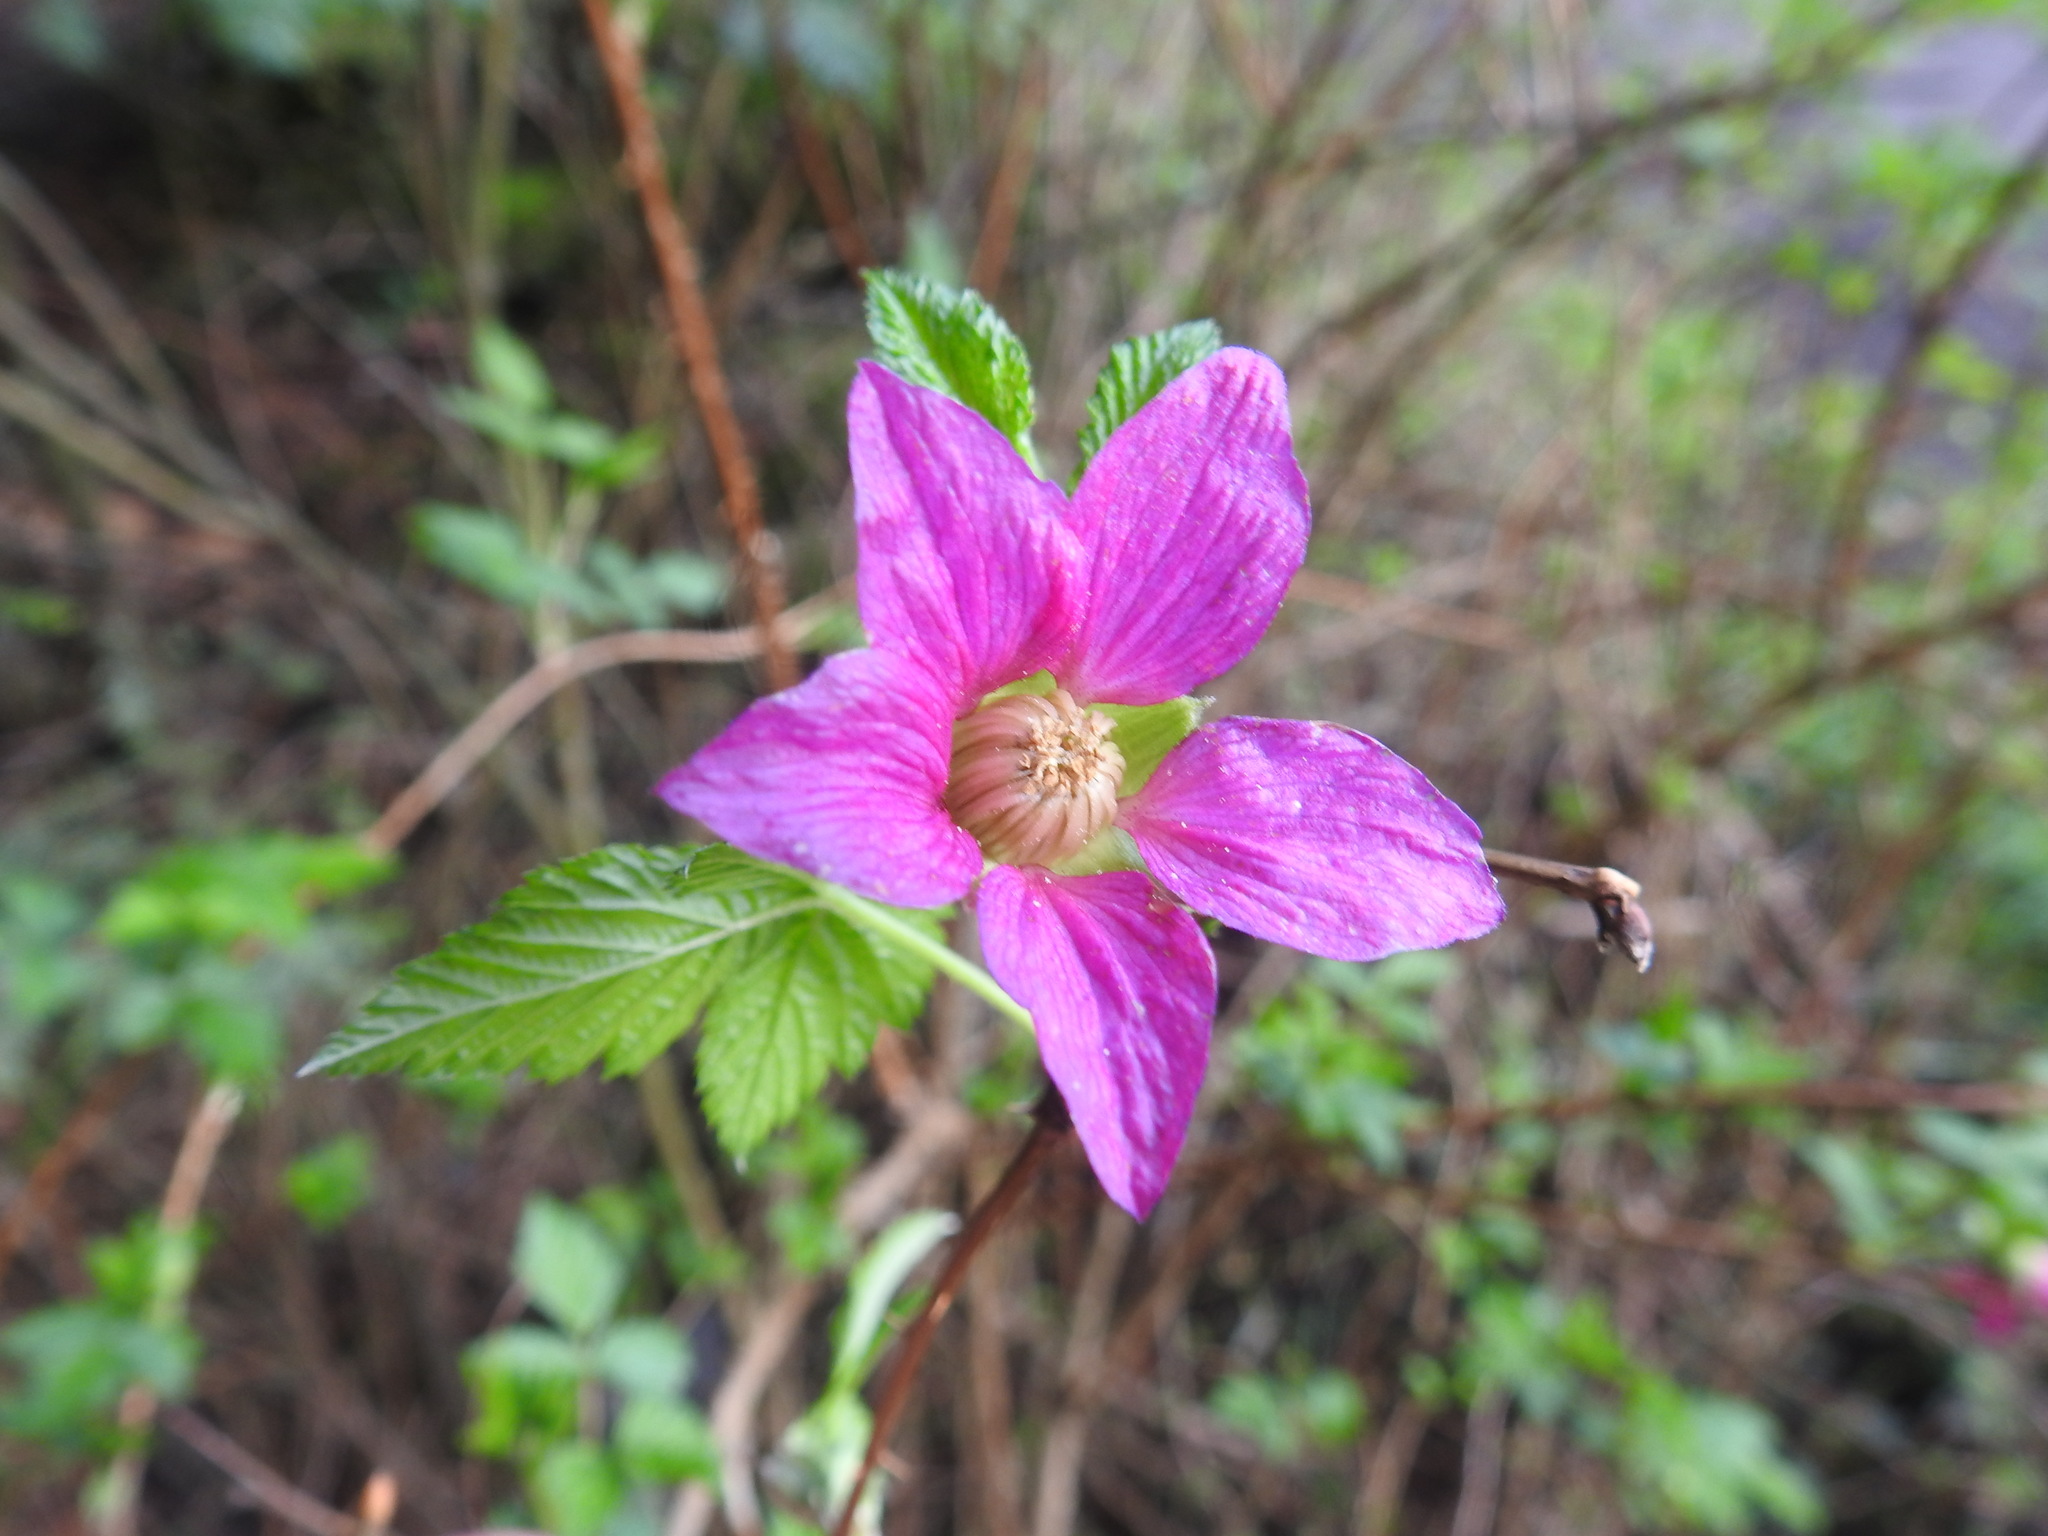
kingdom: Plantae
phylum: Tracheophyta
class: Magnoliopsida
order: Rosales
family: Rosaceae
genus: Rubus
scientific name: Rubus spectabilis
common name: Salmonberry
